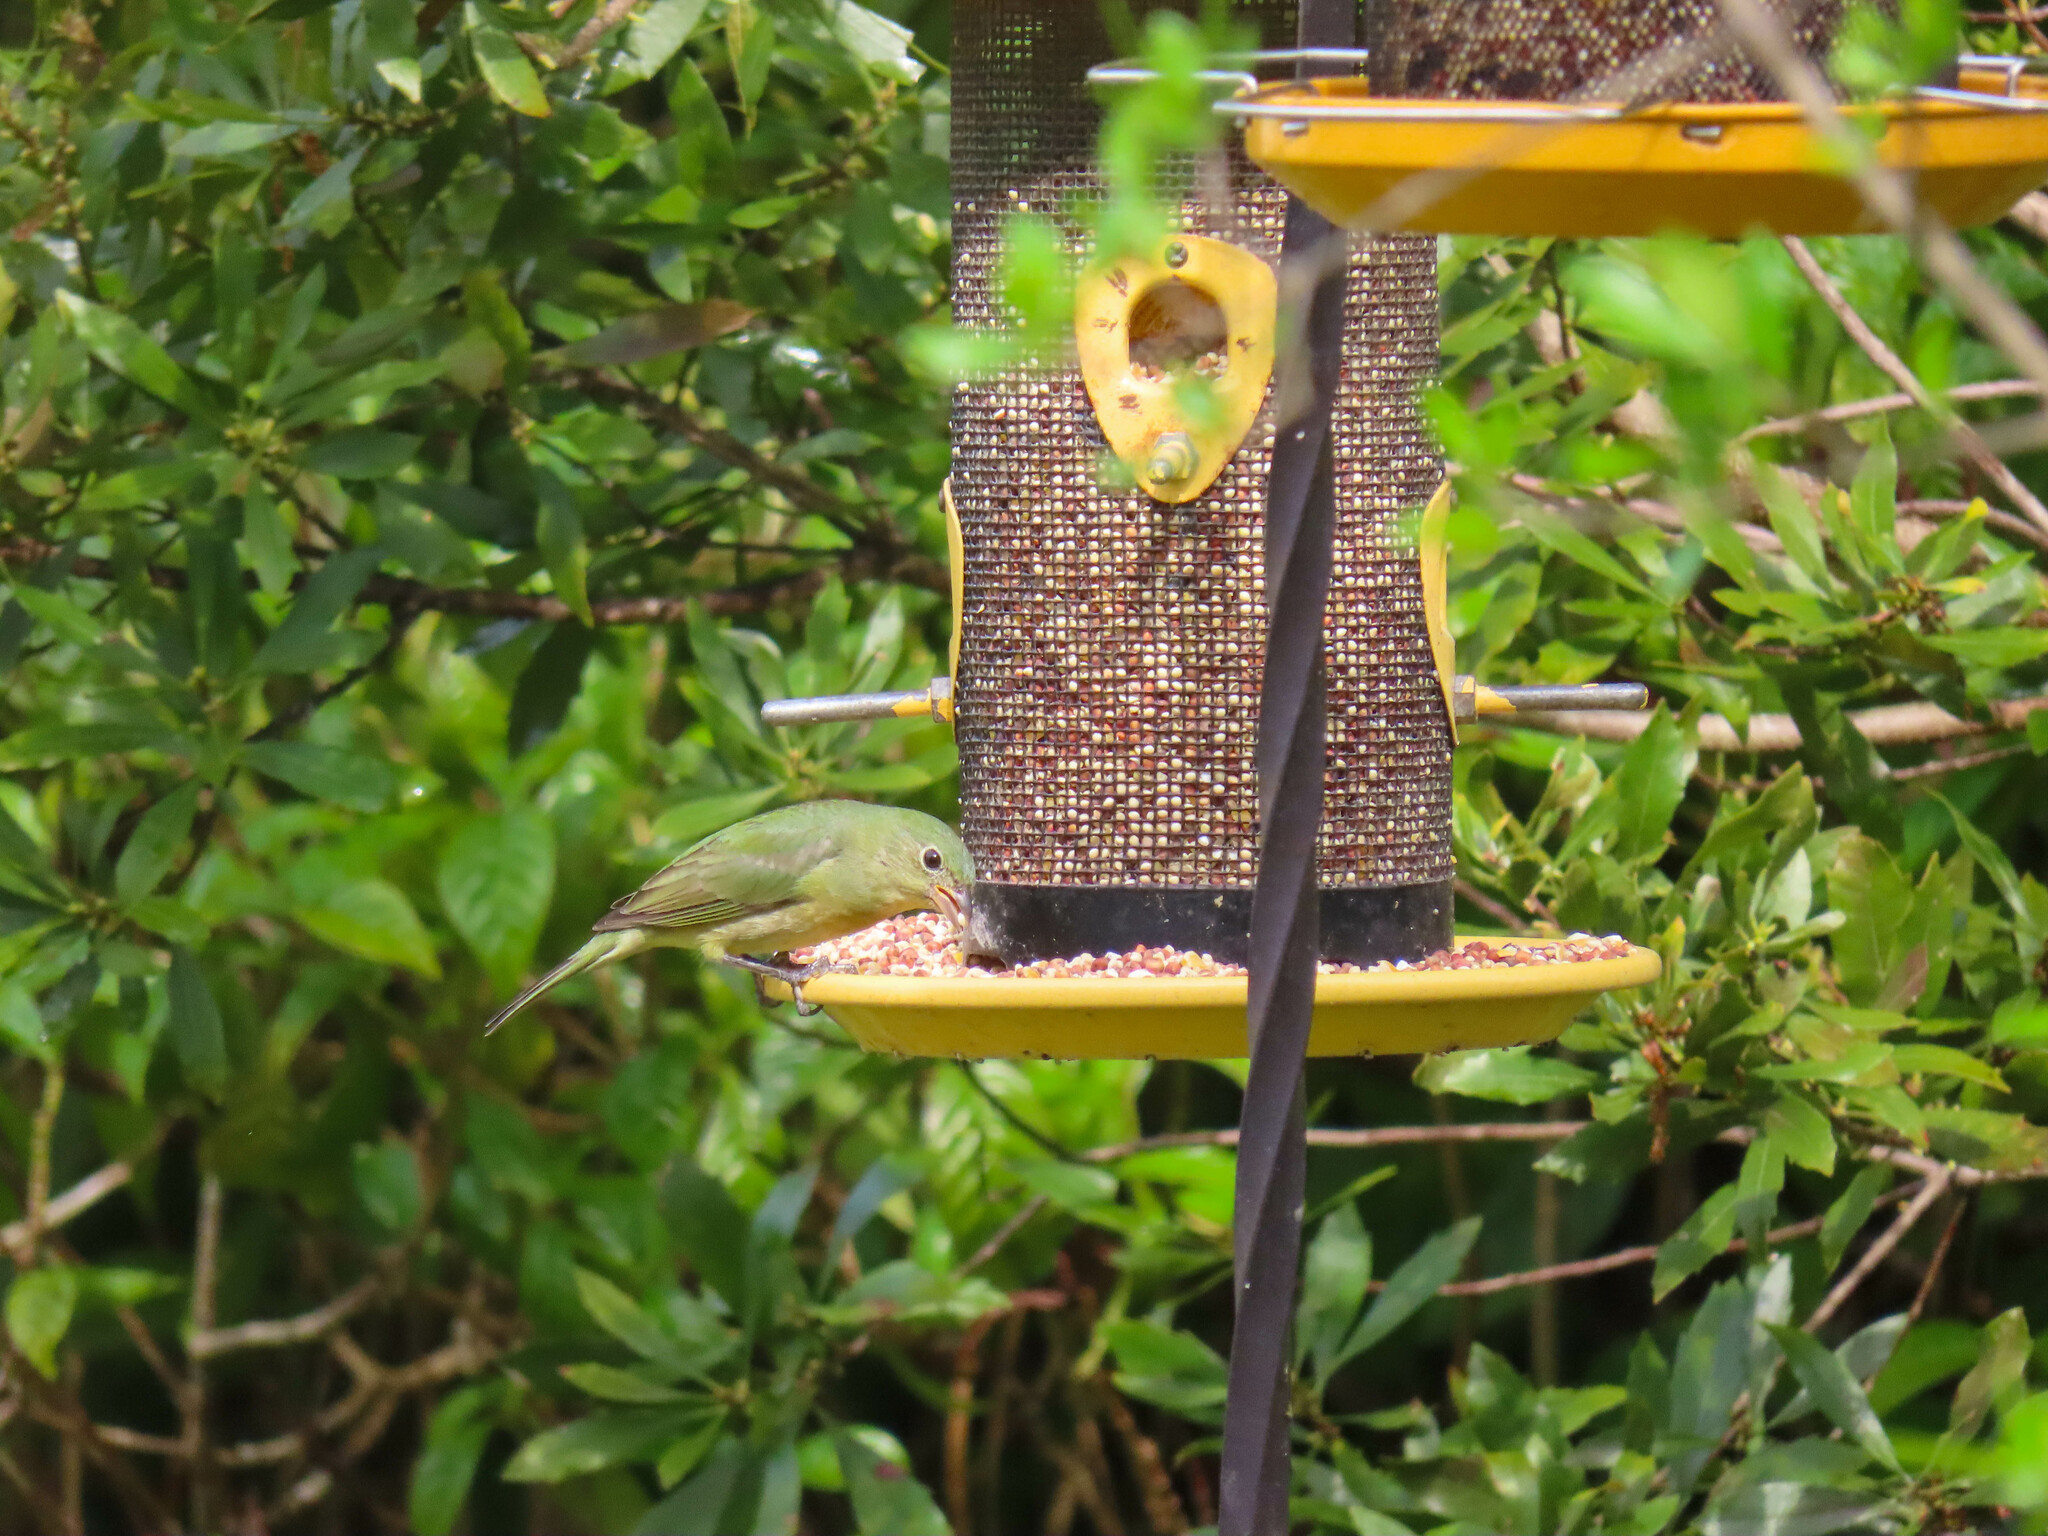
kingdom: Animalia
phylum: Chordata
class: Aves
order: Passeriformes
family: Cardinalidae
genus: Passerina
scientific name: Passerina ciris
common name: Painted bunting
